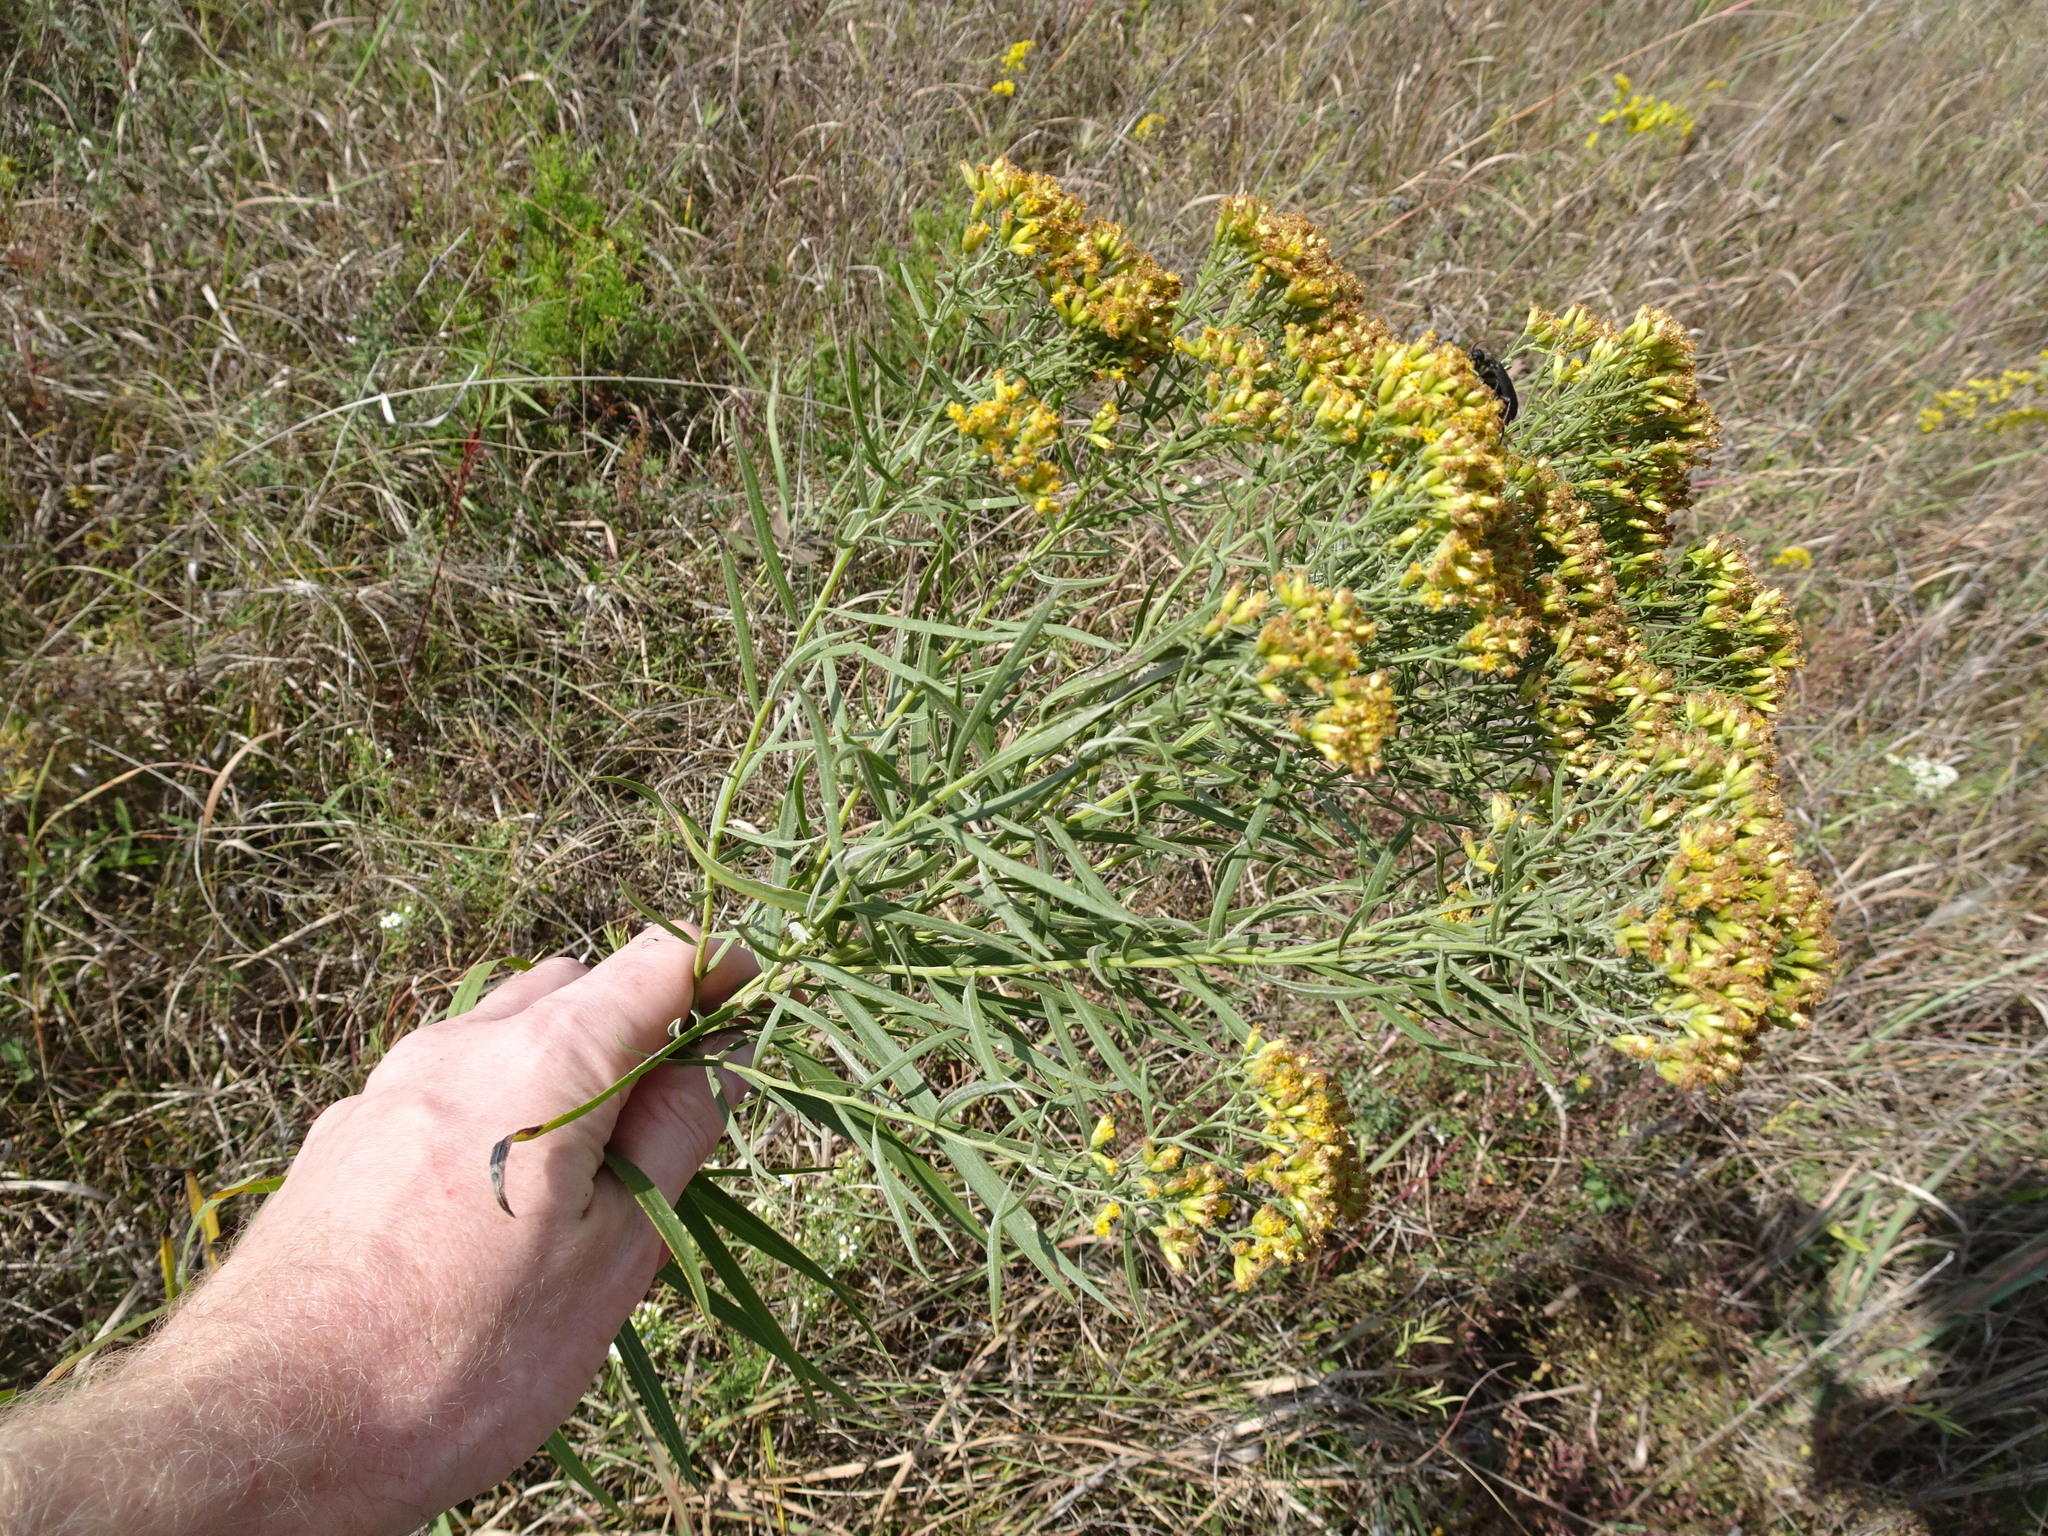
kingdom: Plantae
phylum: Tracheophyta
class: Magnoliopsida
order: Asterales
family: Asteraceae
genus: Euthamia
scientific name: Euthamia gymnospermoides
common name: Great plains goldentop
